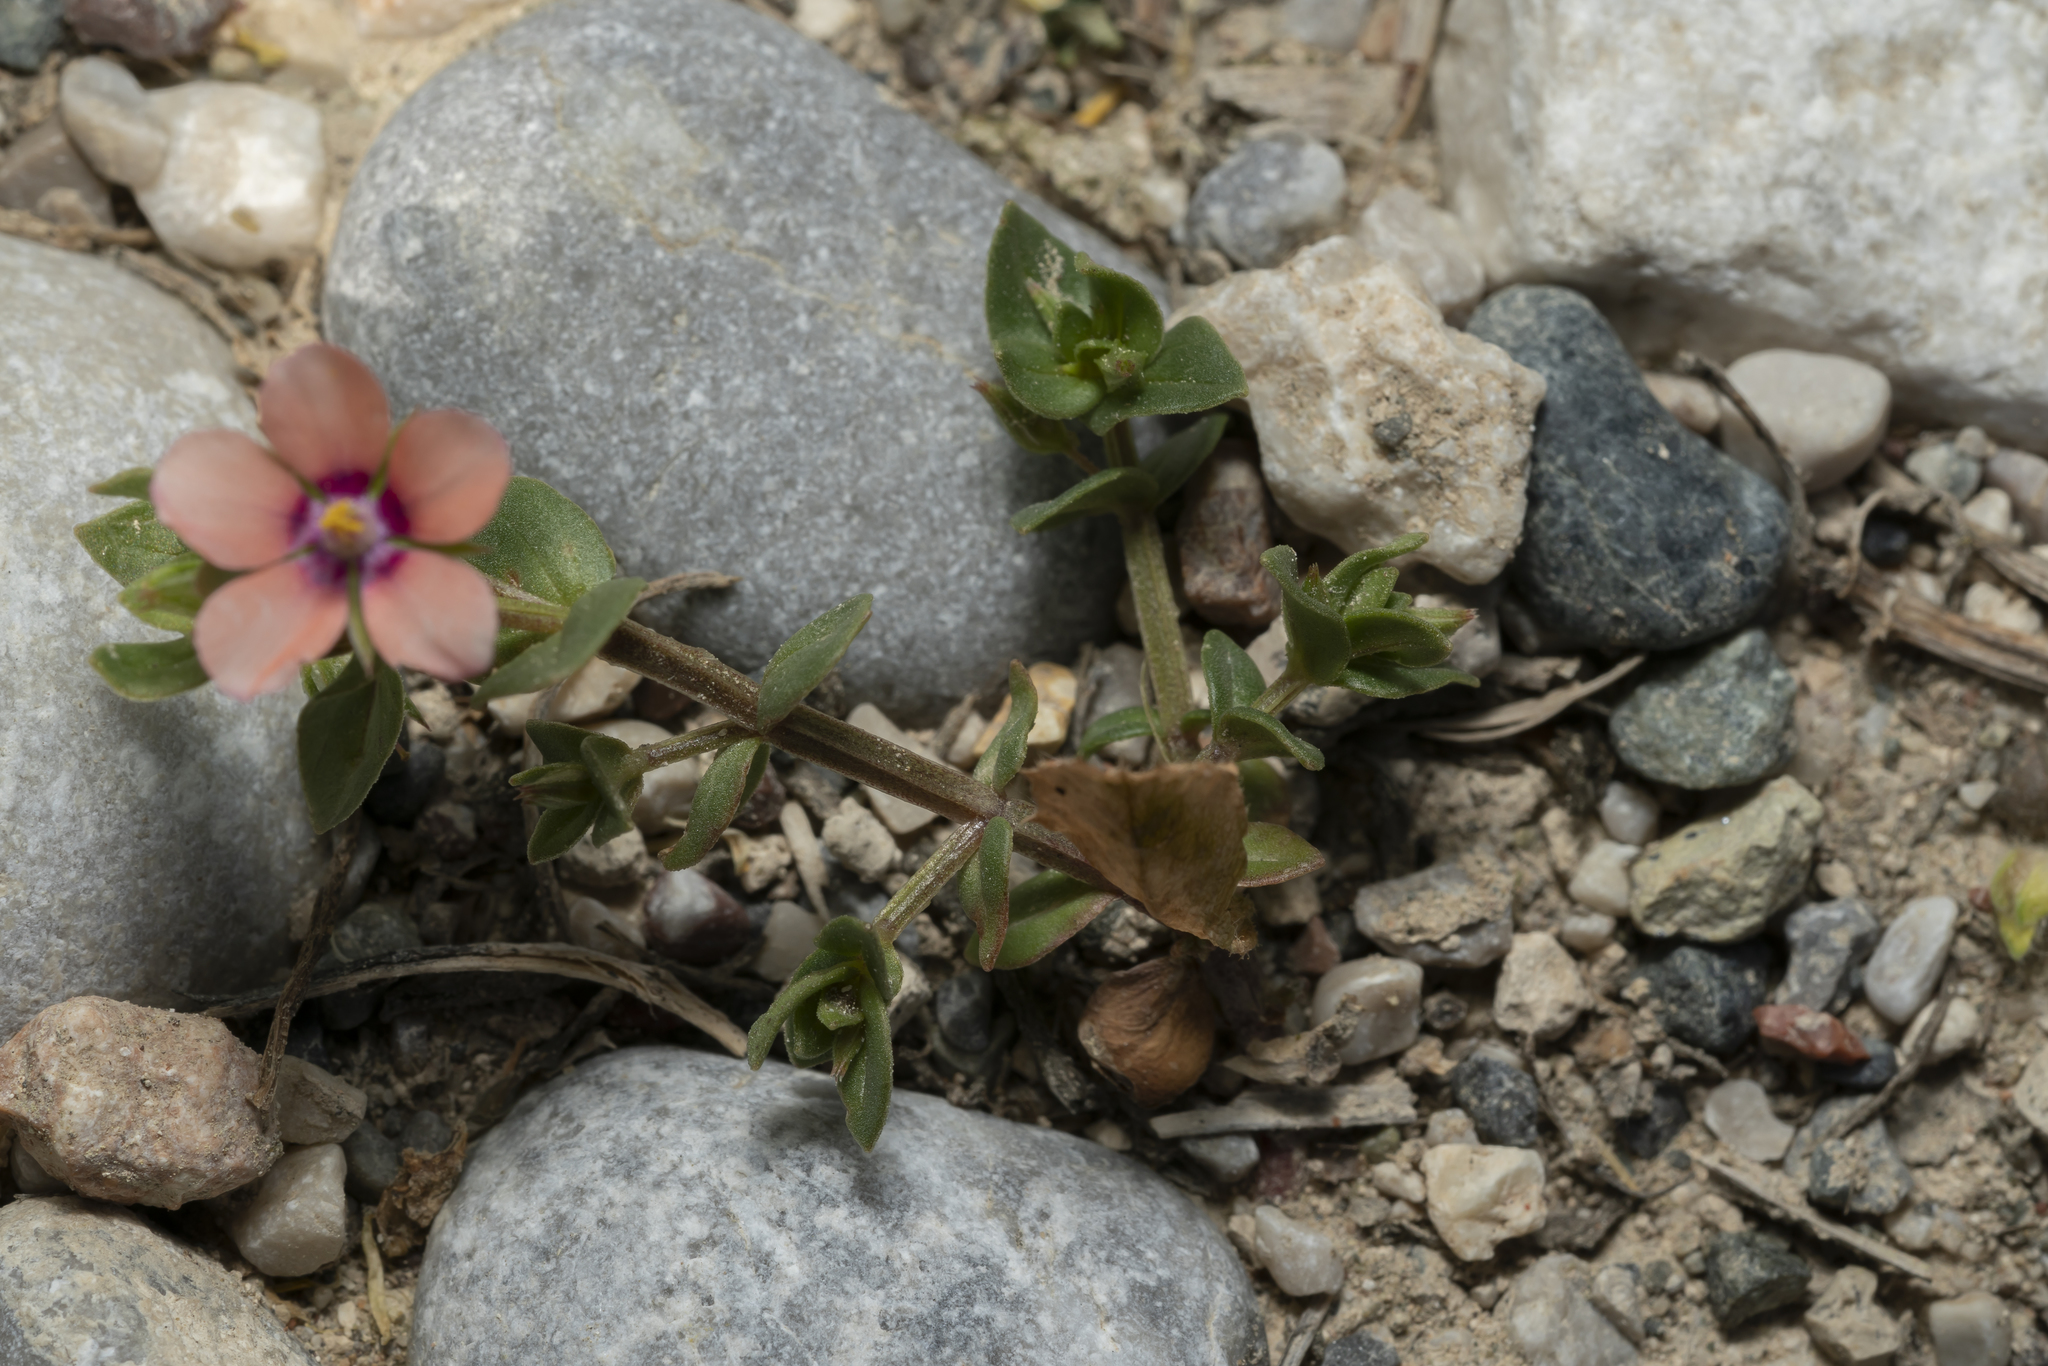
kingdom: Plantae
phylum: Tracheophyta
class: Magnoliopsida
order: Ericales
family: Primulaceae
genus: Lysimachia
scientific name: Lysimachia arvensis
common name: Scarlet pimpernel
